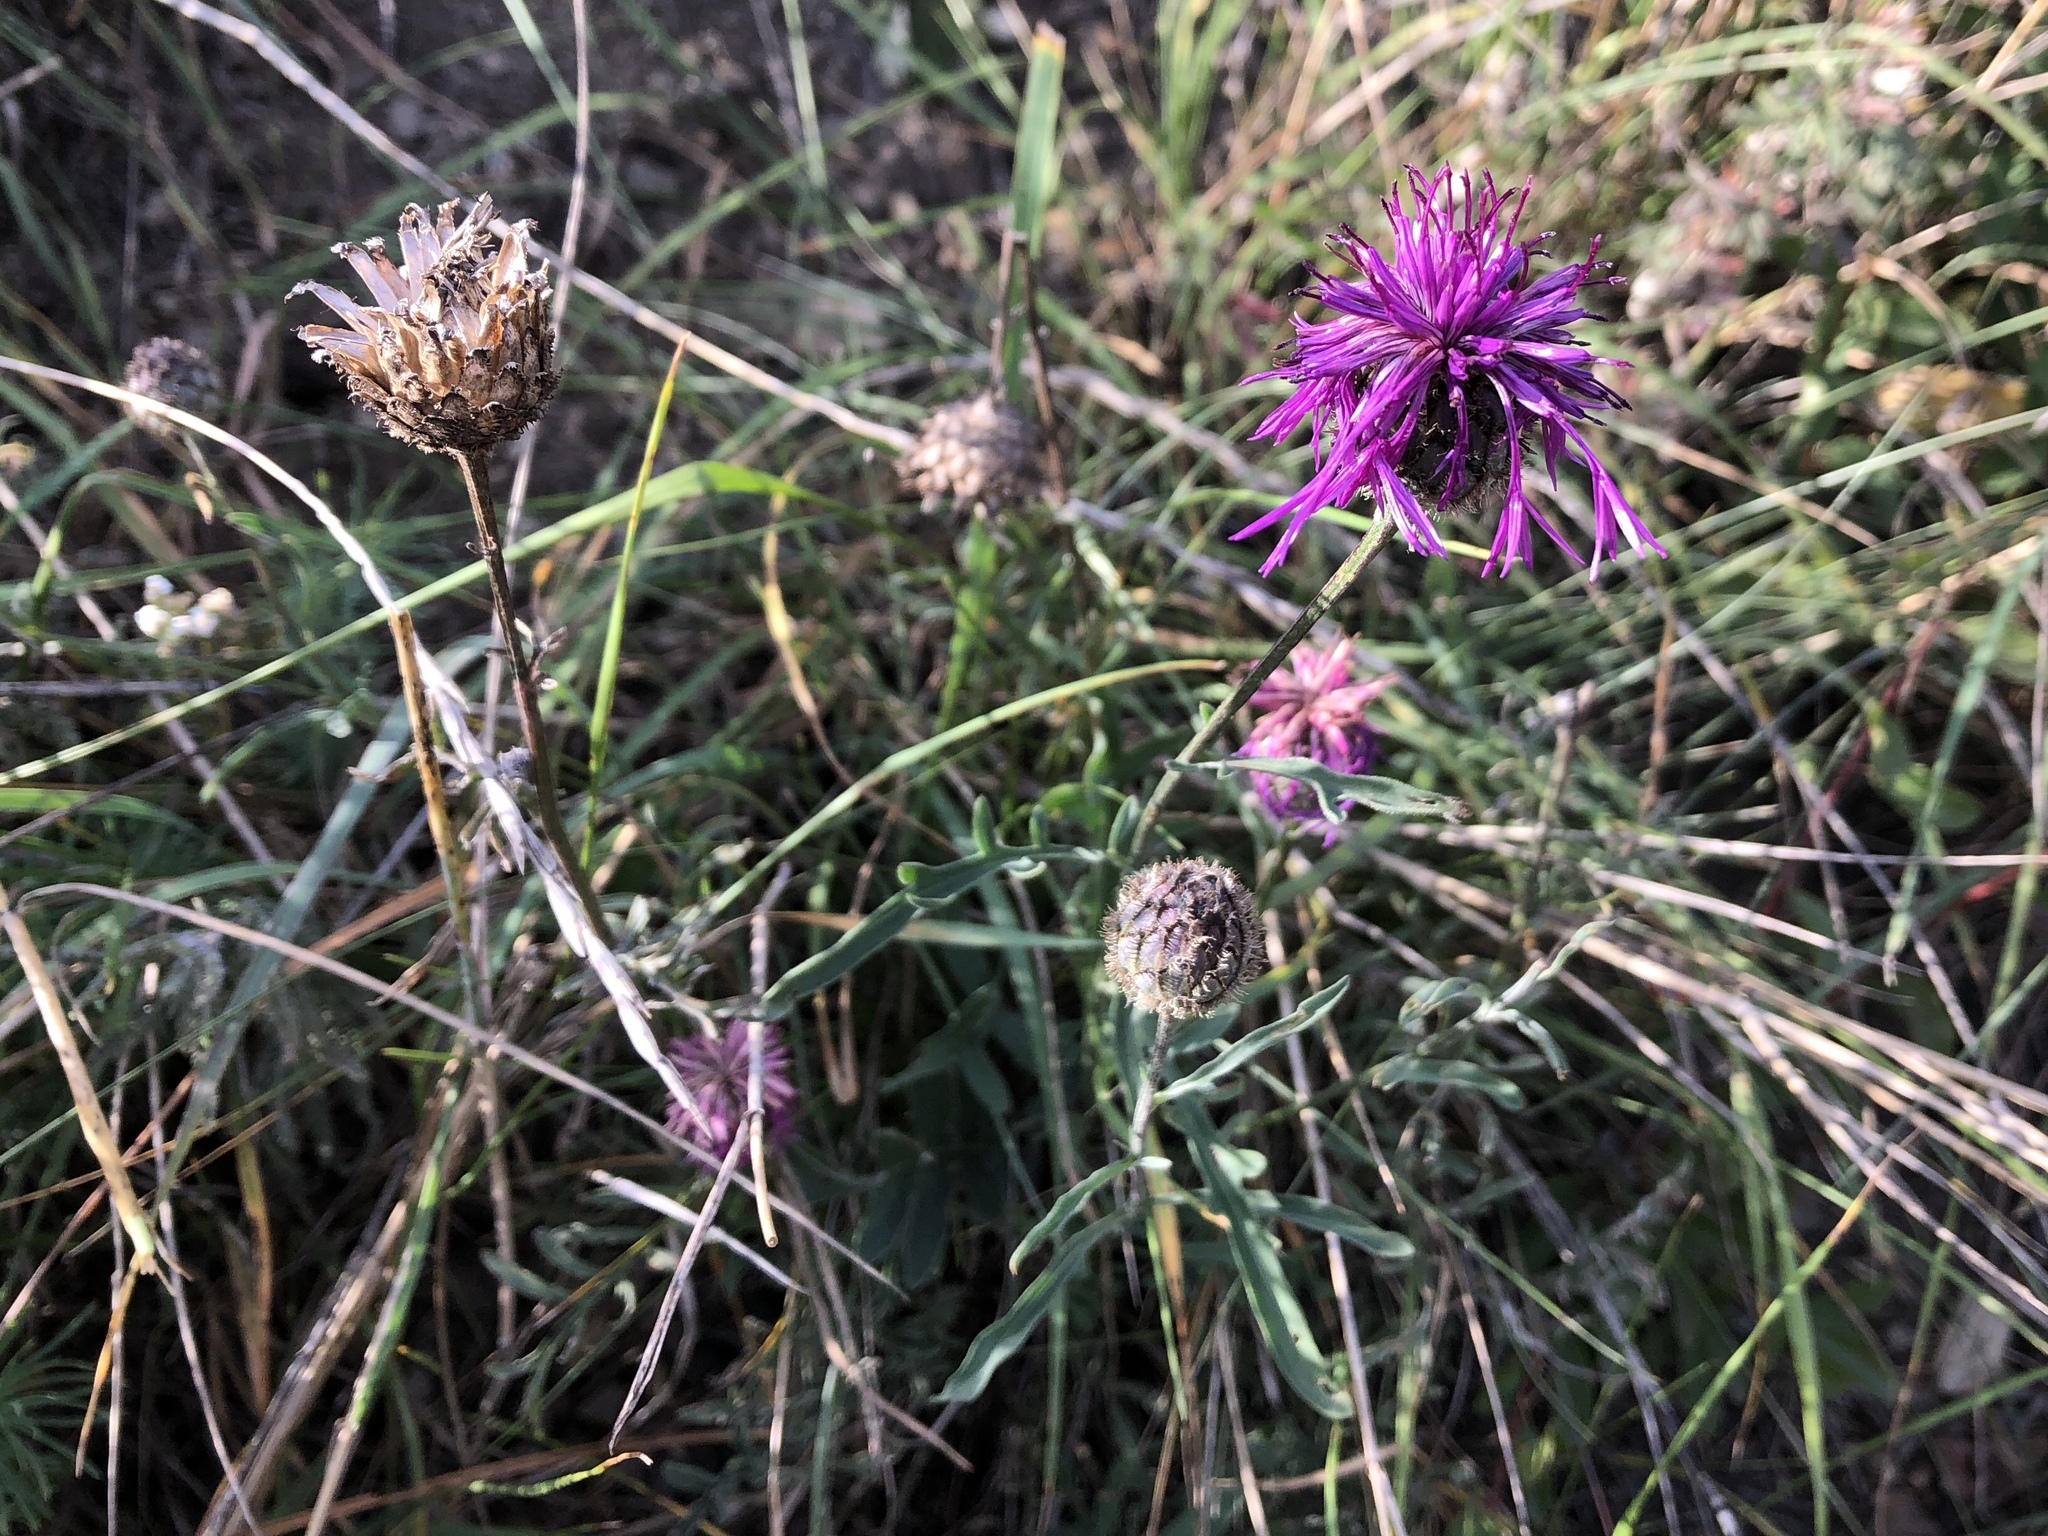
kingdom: Plantae
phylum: Tracheophyta
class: Magnoliopsida
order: Asterales
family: Asteraceae
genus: Centaurea
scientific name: Centaurea scabiosa
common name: Greater knapweed
